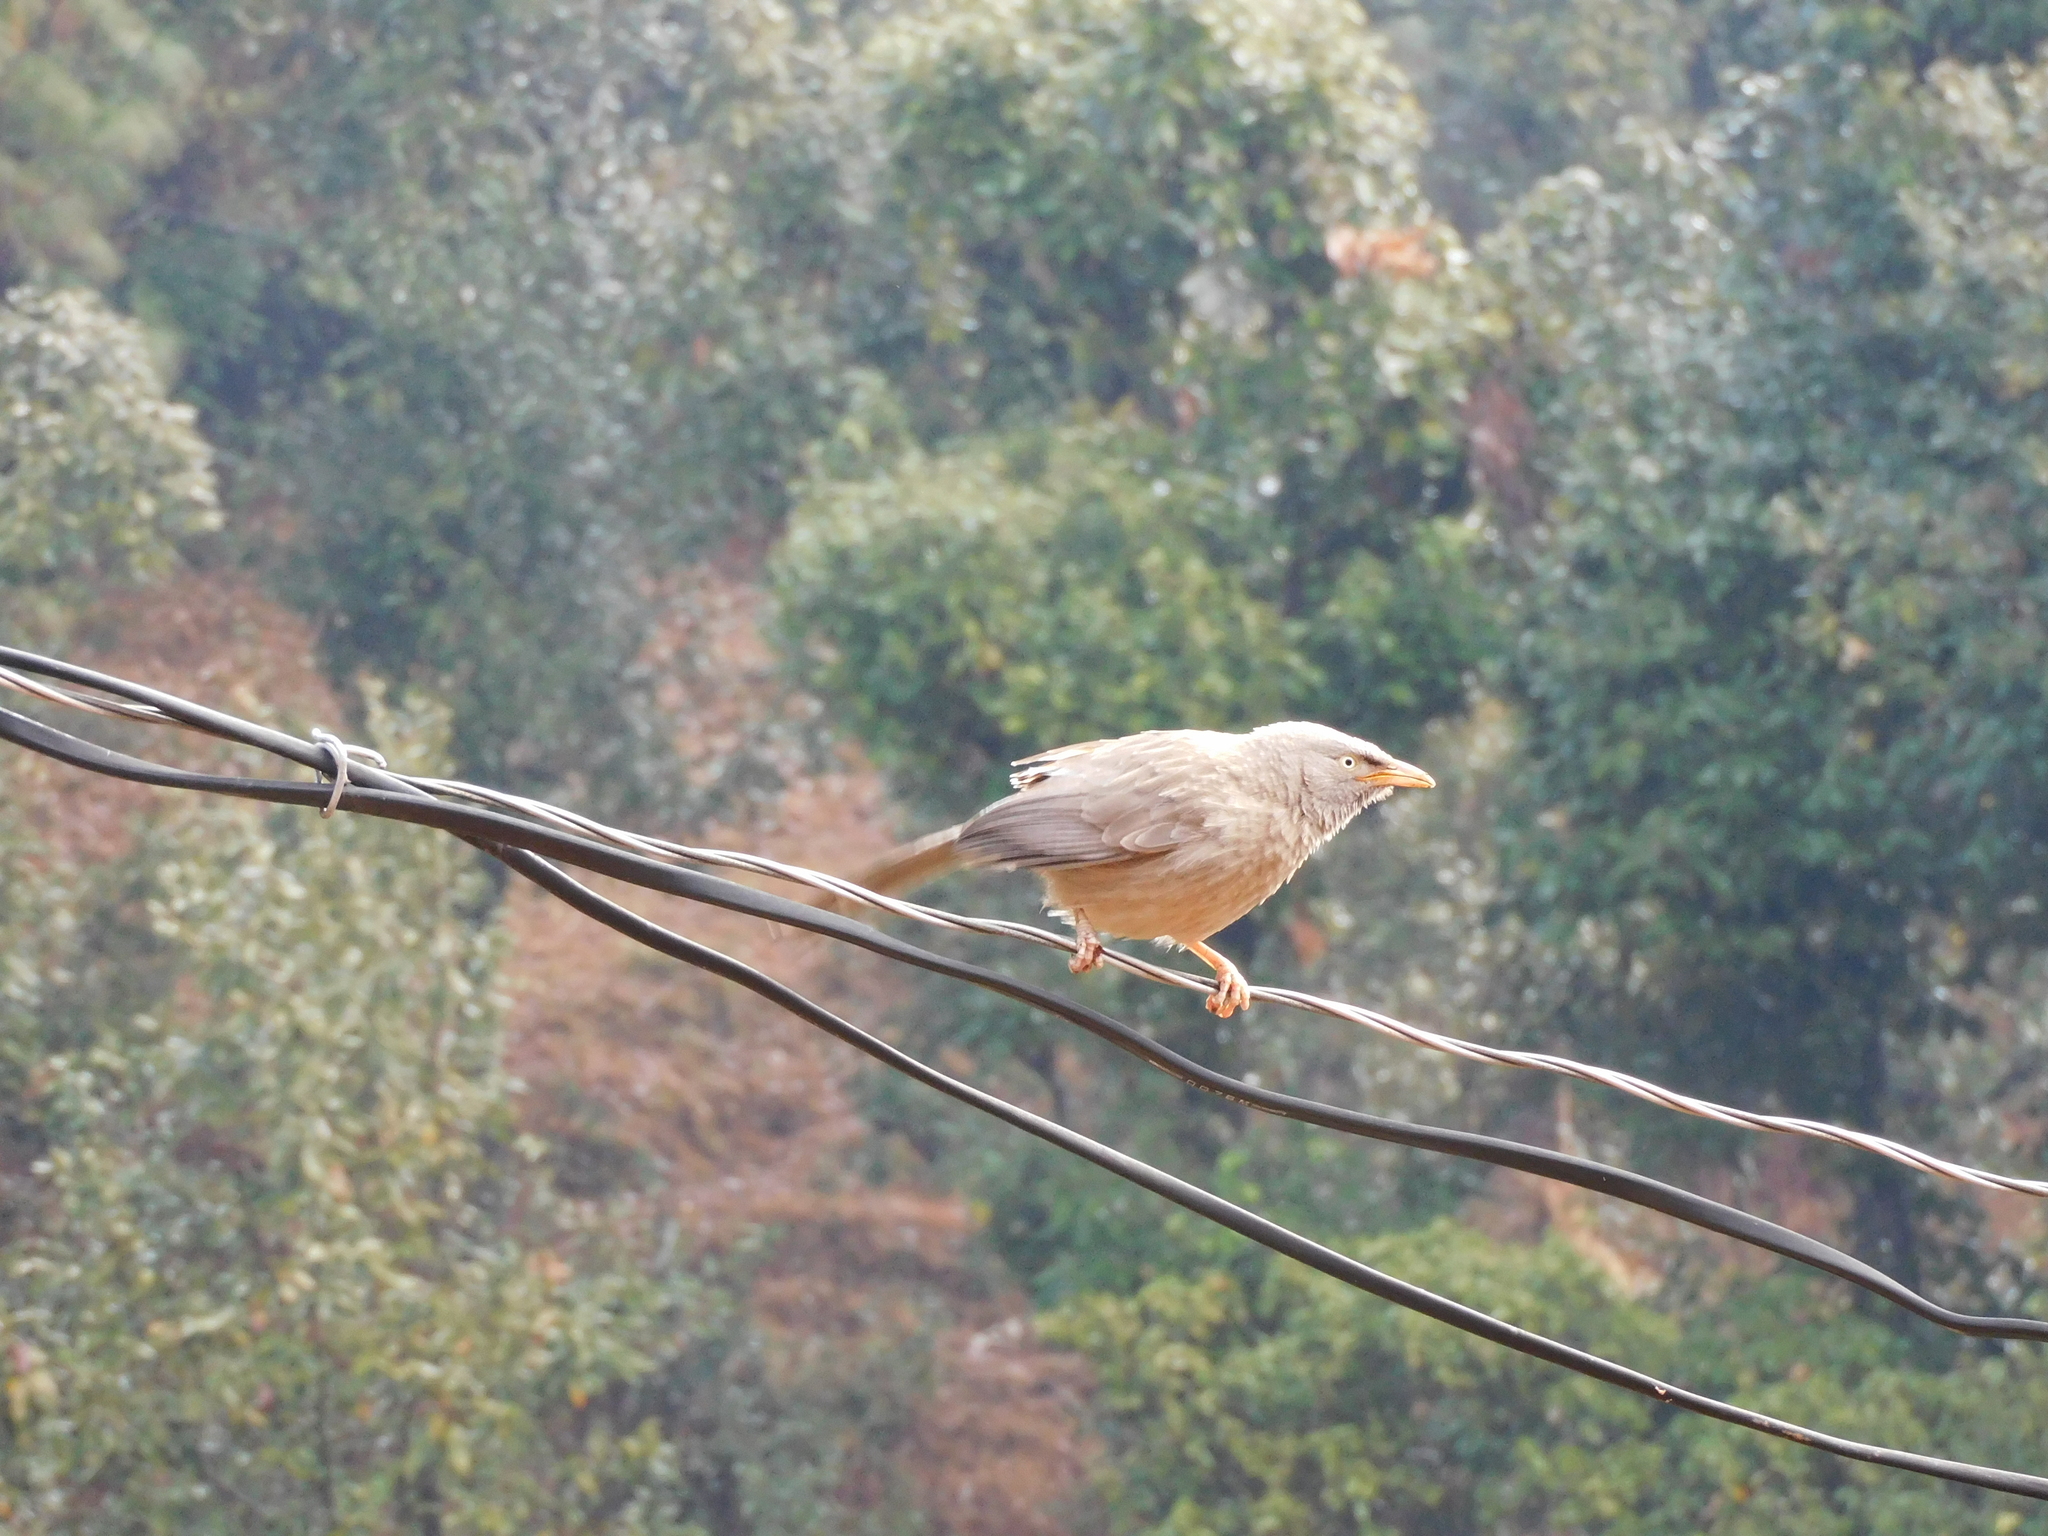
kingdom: Animalia
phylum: Chordata
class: Aves
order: Passeriformes
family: Leiothrichidae
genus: Turdoides
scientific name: Turdoides striata
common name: Jungle babbler
